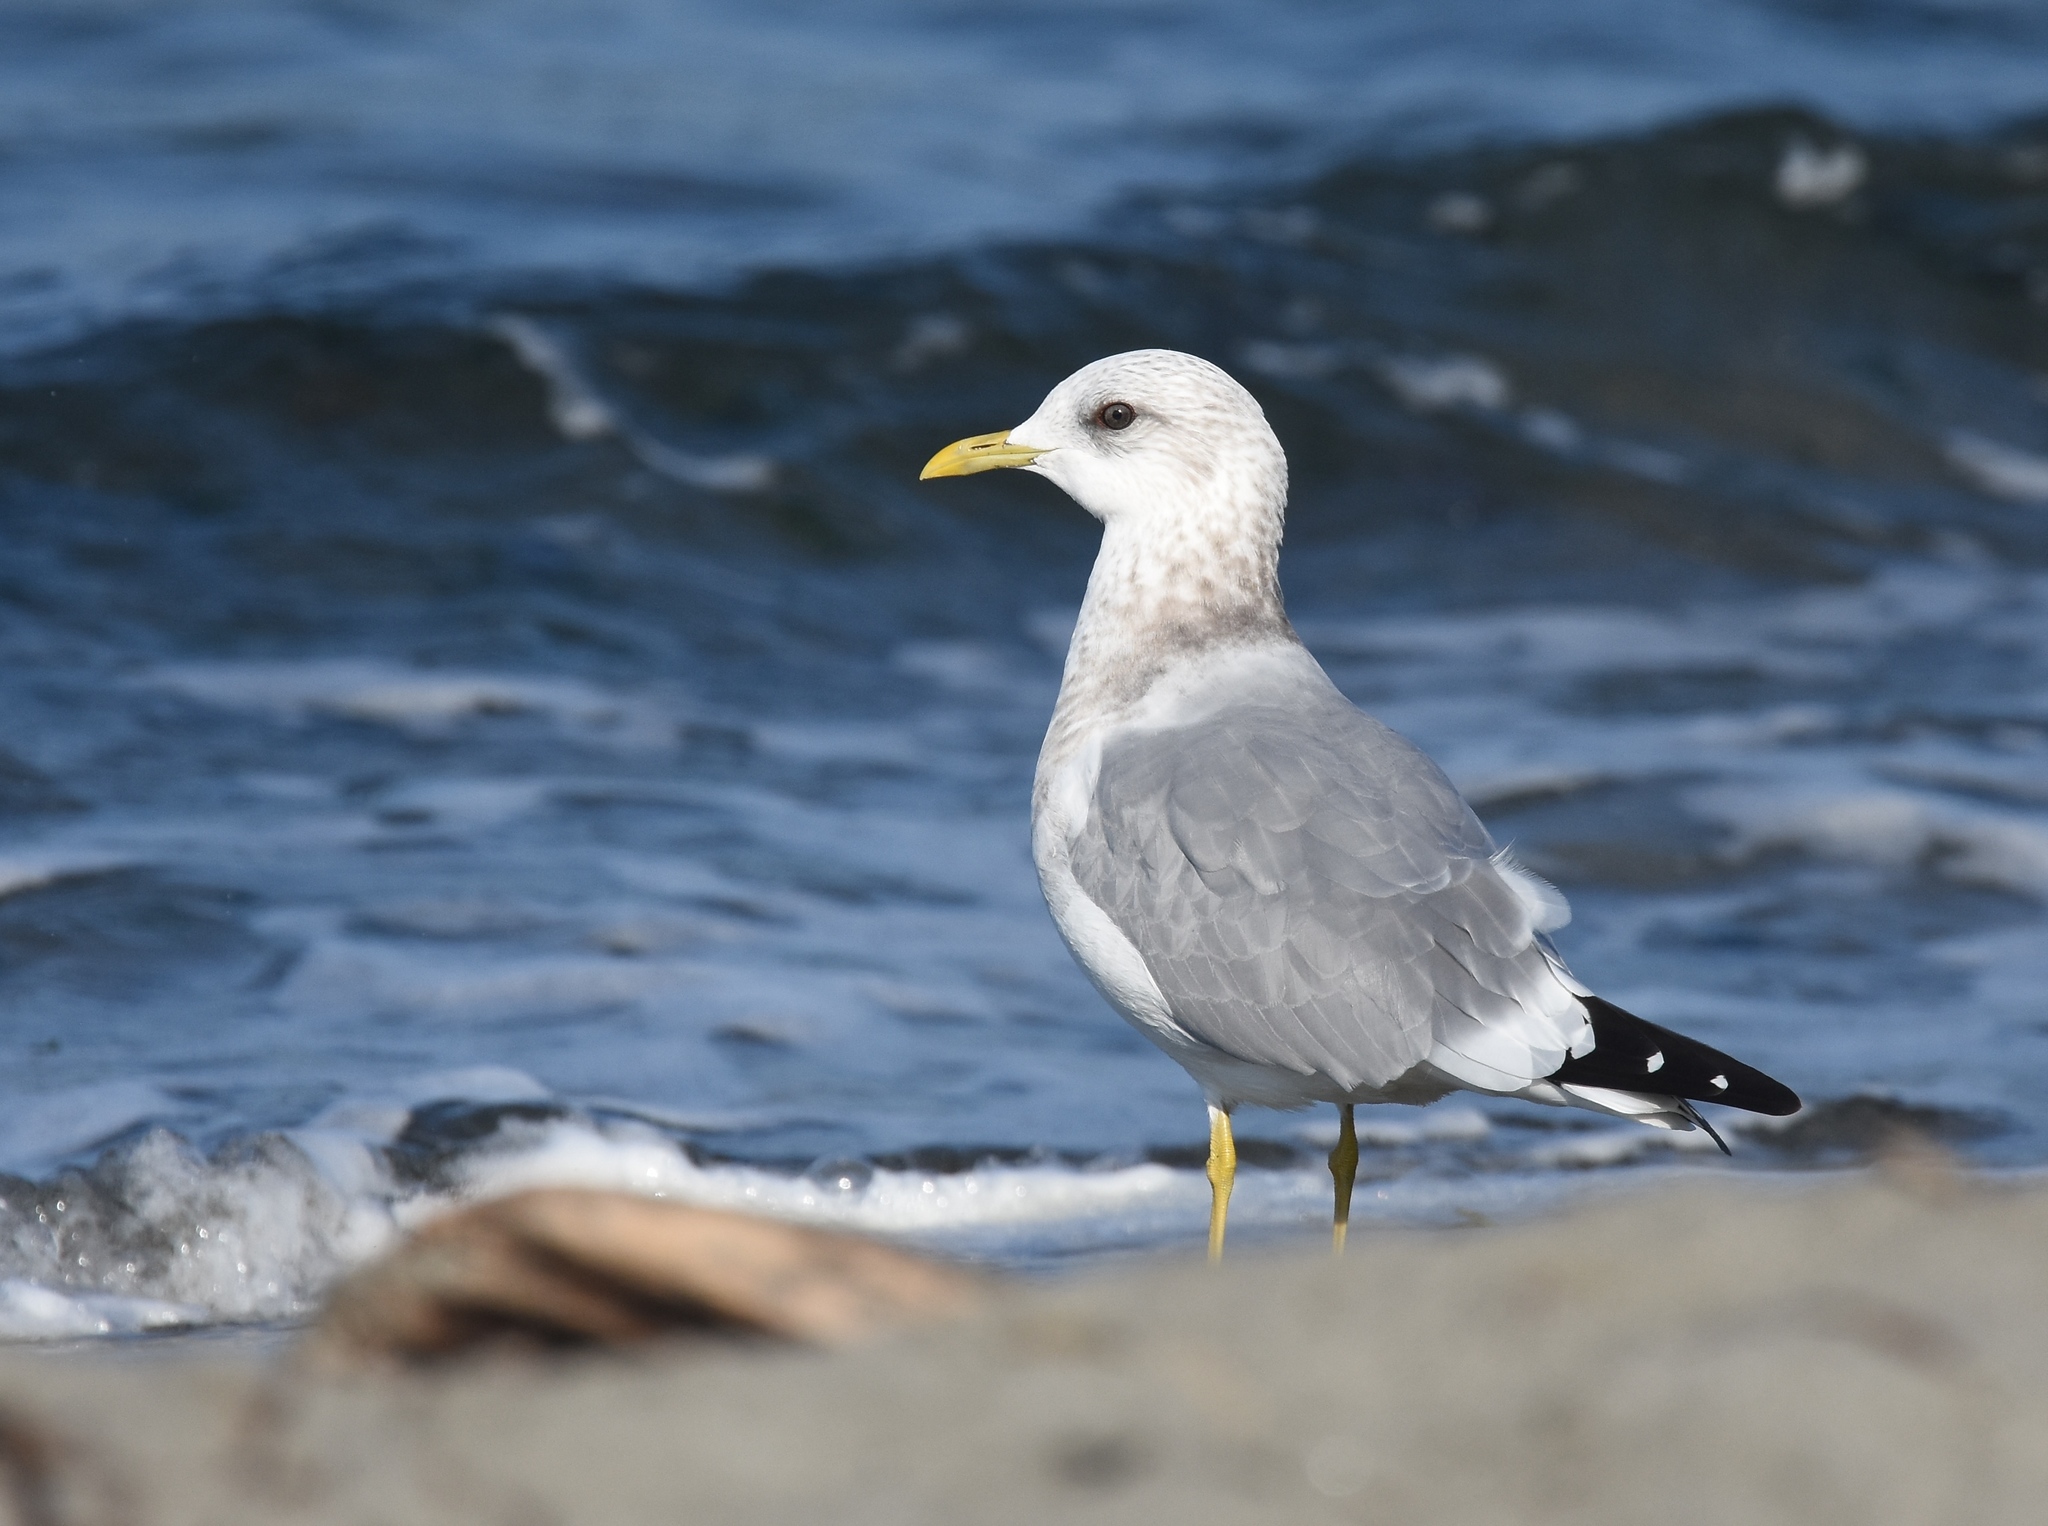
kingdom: Animalia
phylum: Chordata
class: Aves
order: Charadriiformes
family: Laridae
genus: Larus
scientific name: Larus brachyrhynchus
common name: Short-billed gull
